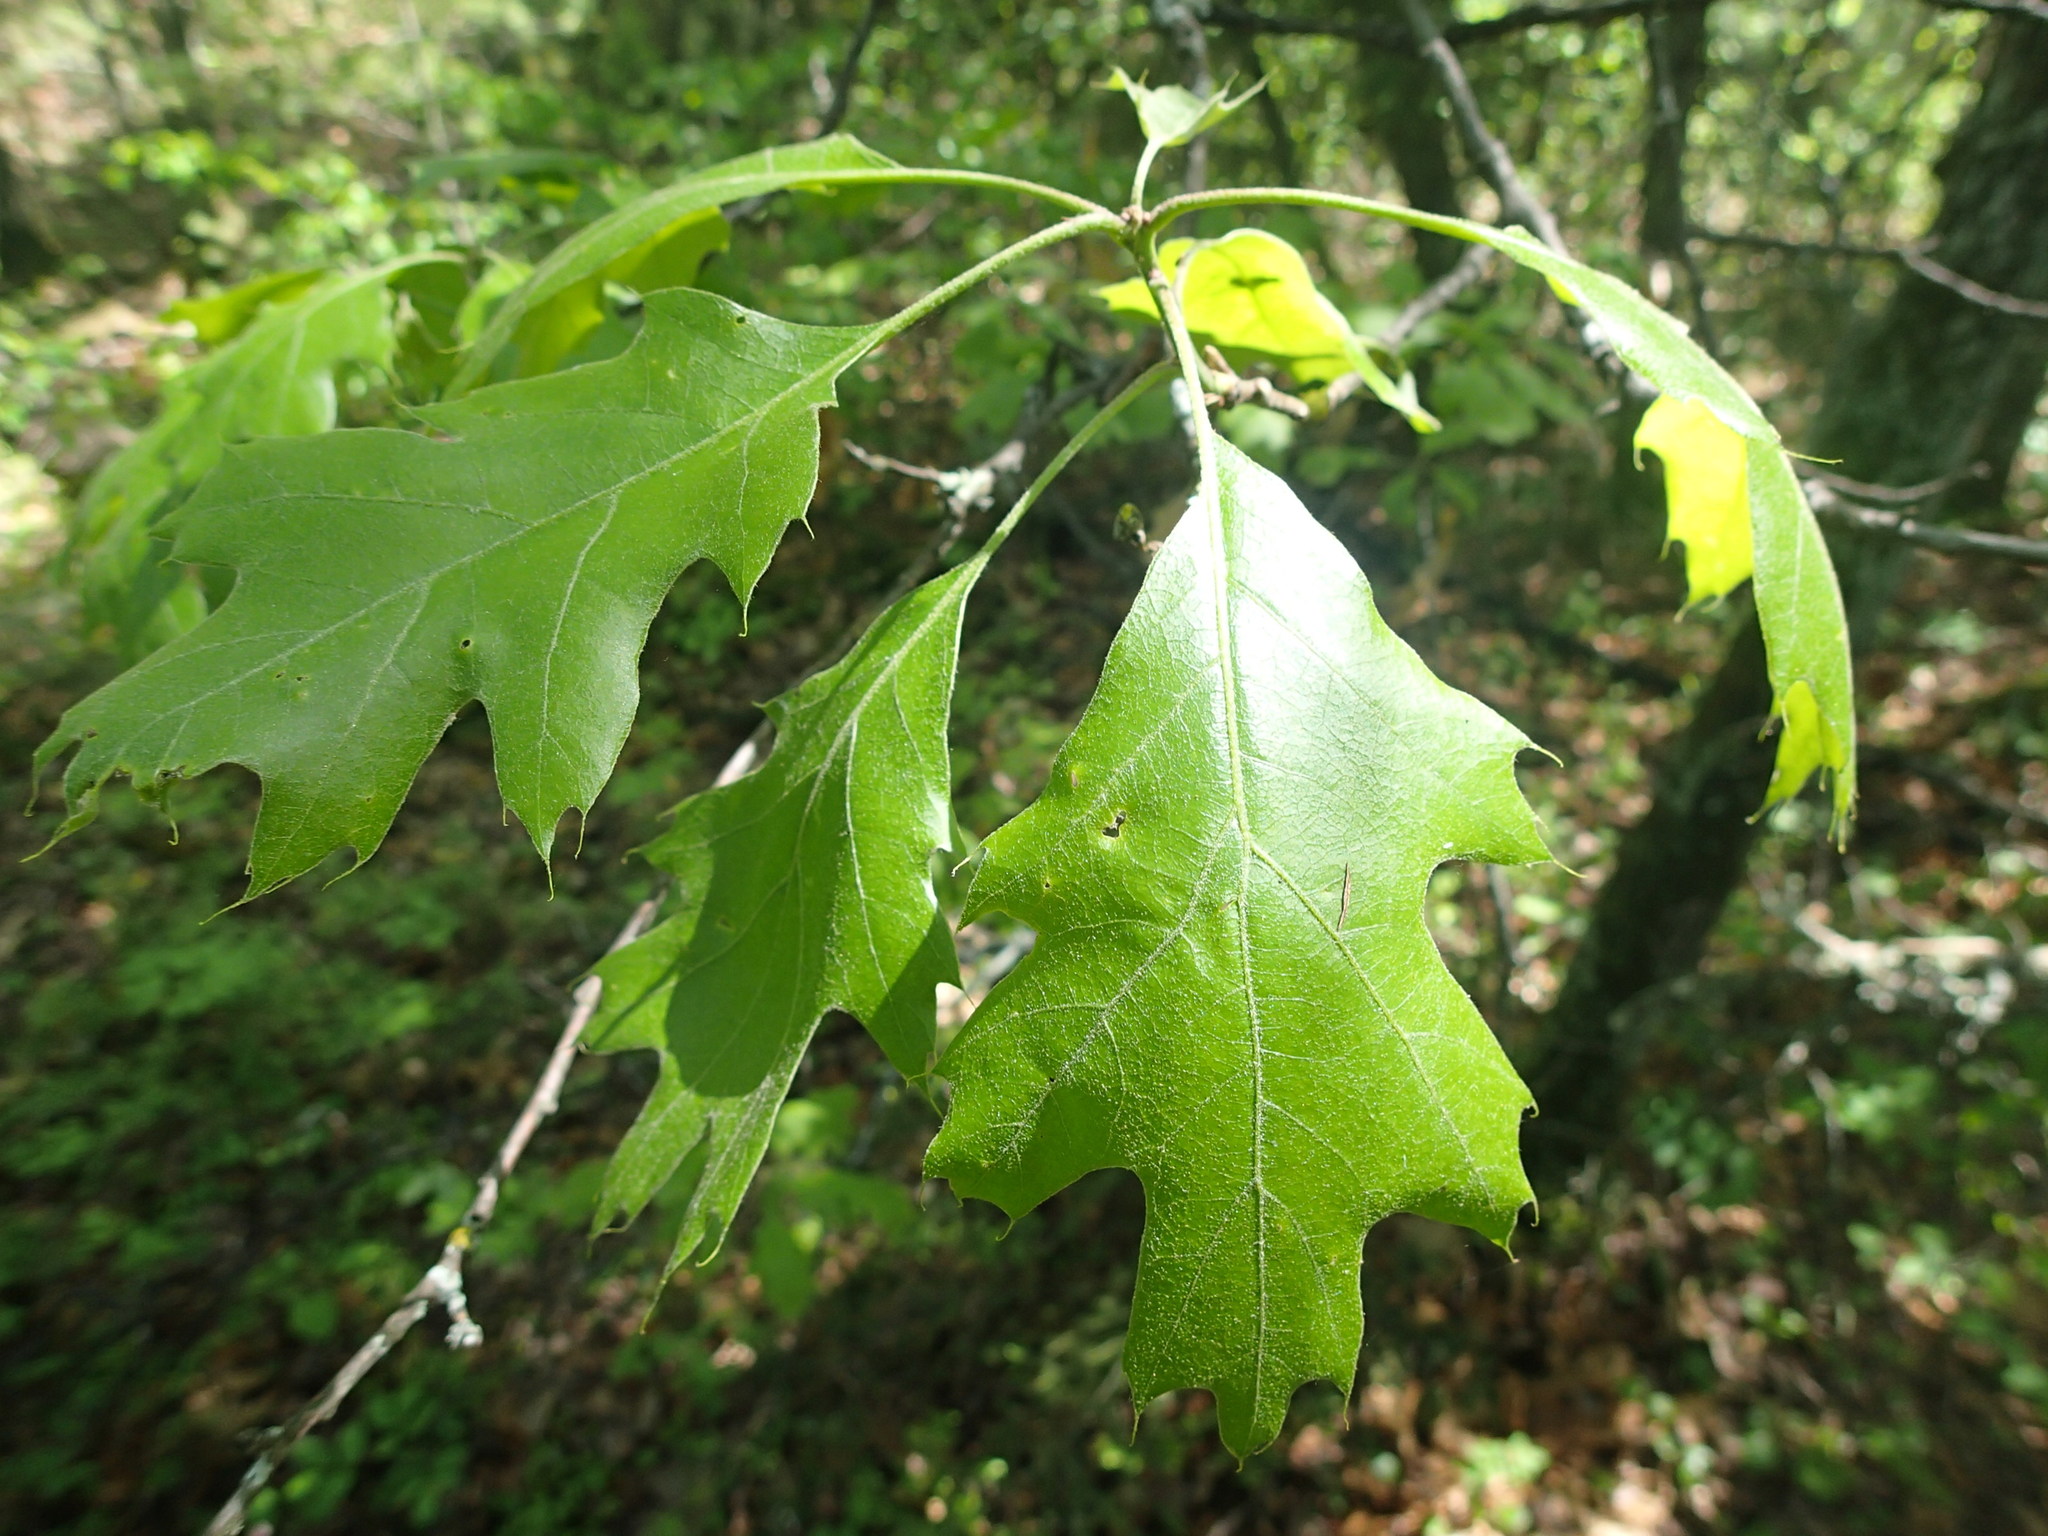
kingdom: Plantae
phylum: Tracheophyta
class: Magnoliopsida
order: Fagales
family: Fagaceae
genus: Quercus
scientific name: Quercus rubra
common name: Red oak
